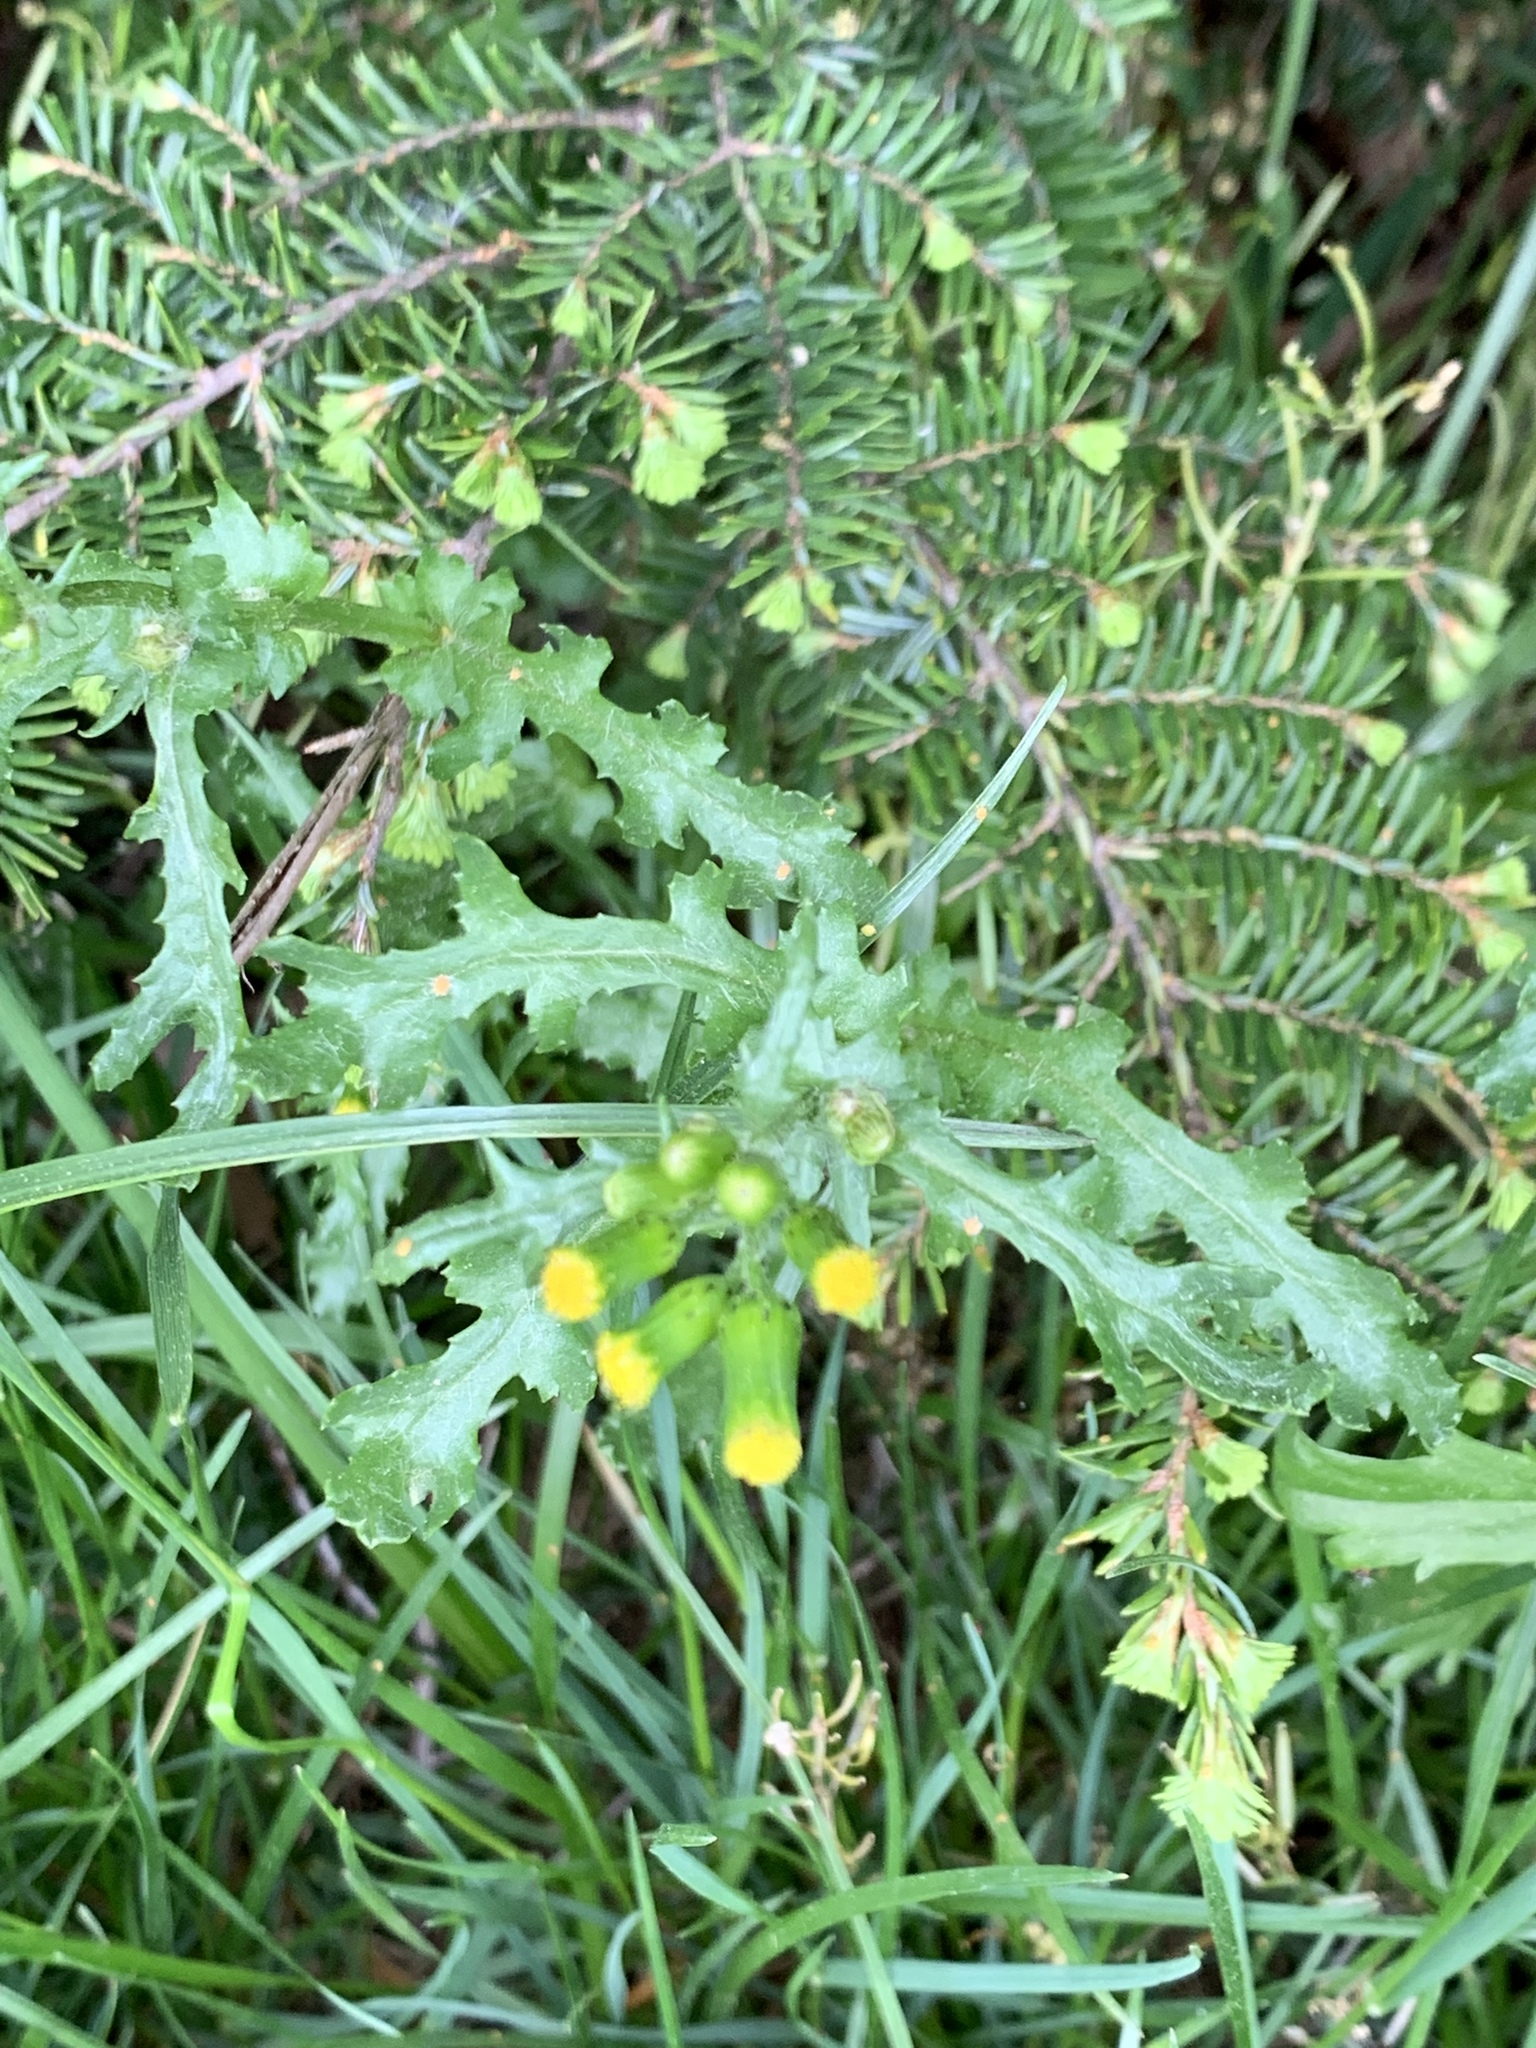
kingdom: Plantae
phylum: Tracheophyta
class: Magnoliopsida
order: Asterales
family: Asteraceae
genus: Senecio
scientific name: Senecio vulgaris
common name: Old-man-in-the-spring
